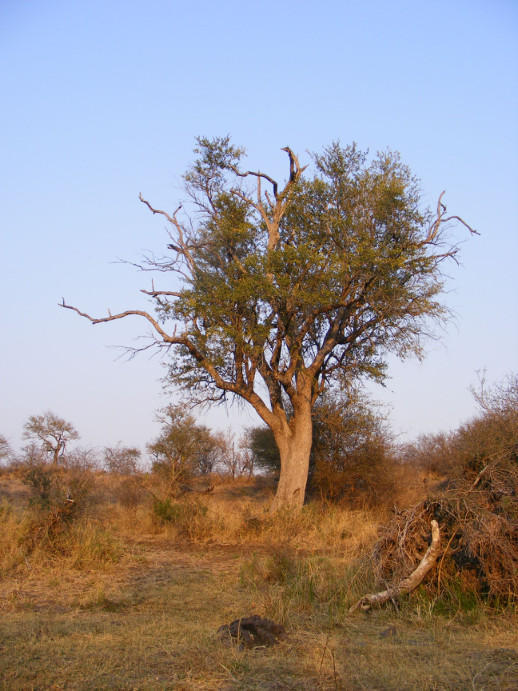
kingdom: Plantae
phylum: Tracheophyta
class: Magnoliopsida
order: Myrtales
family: Combretaceae
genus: Combretum
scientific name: Combretum imberbe
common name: Leadwood
